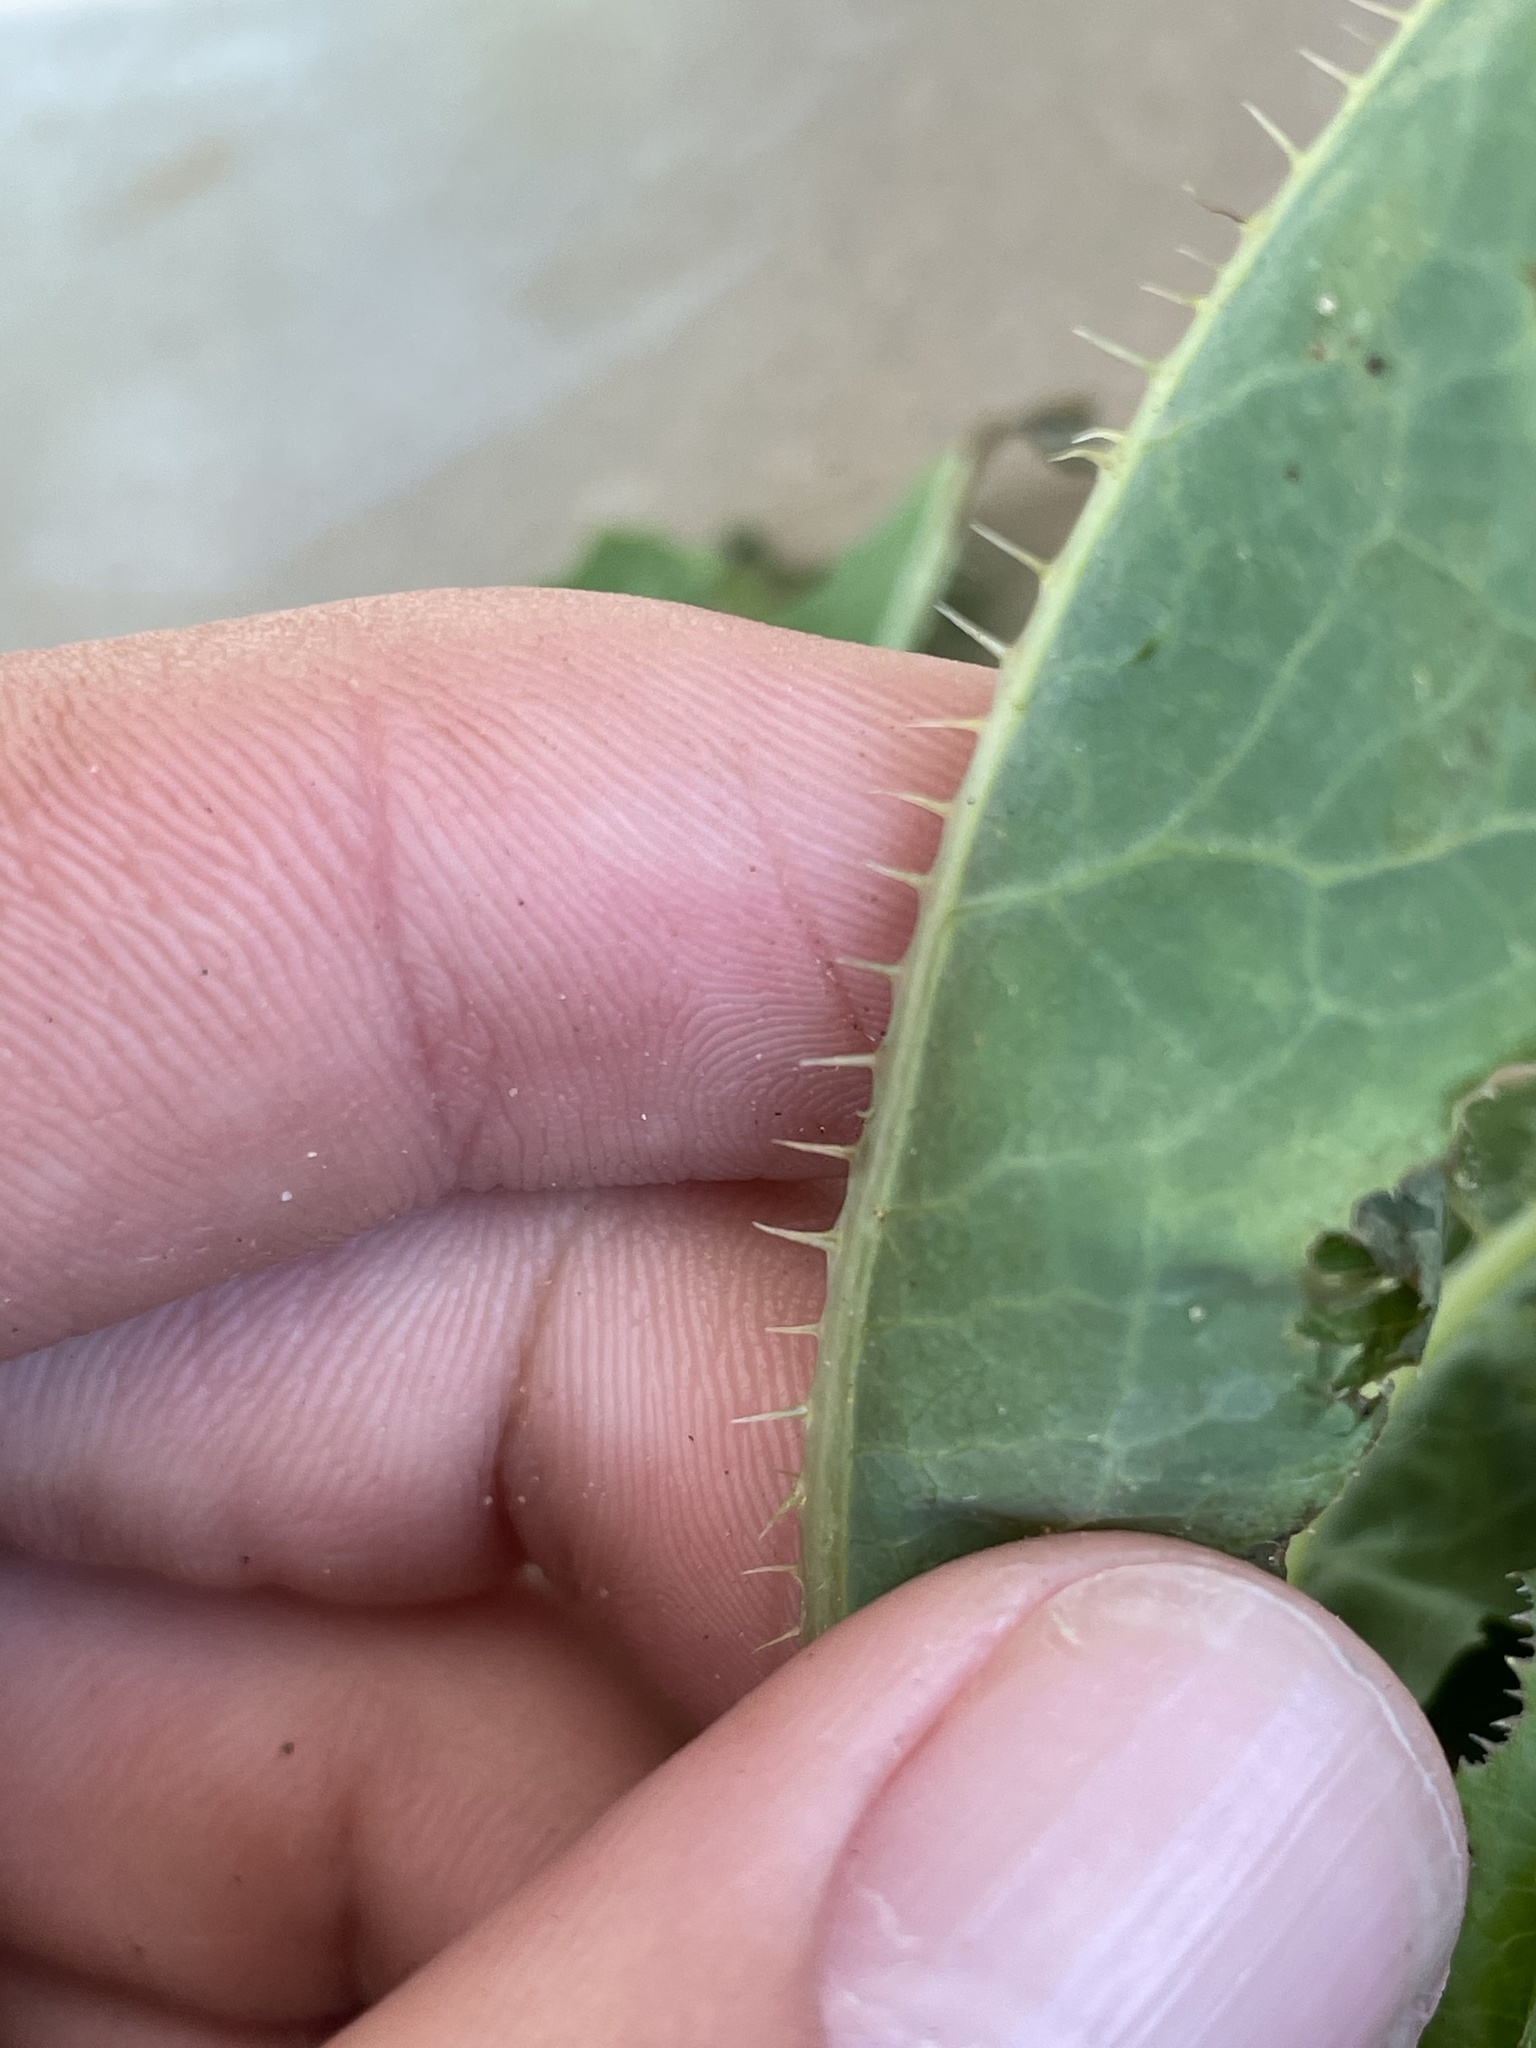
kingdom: Plantae
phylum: Tracheophyta
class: Magnoliopsida
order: Asterales
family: Asteraceae
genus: Lactuca
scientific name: Lactuca serriola
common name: Prickly lettuce
